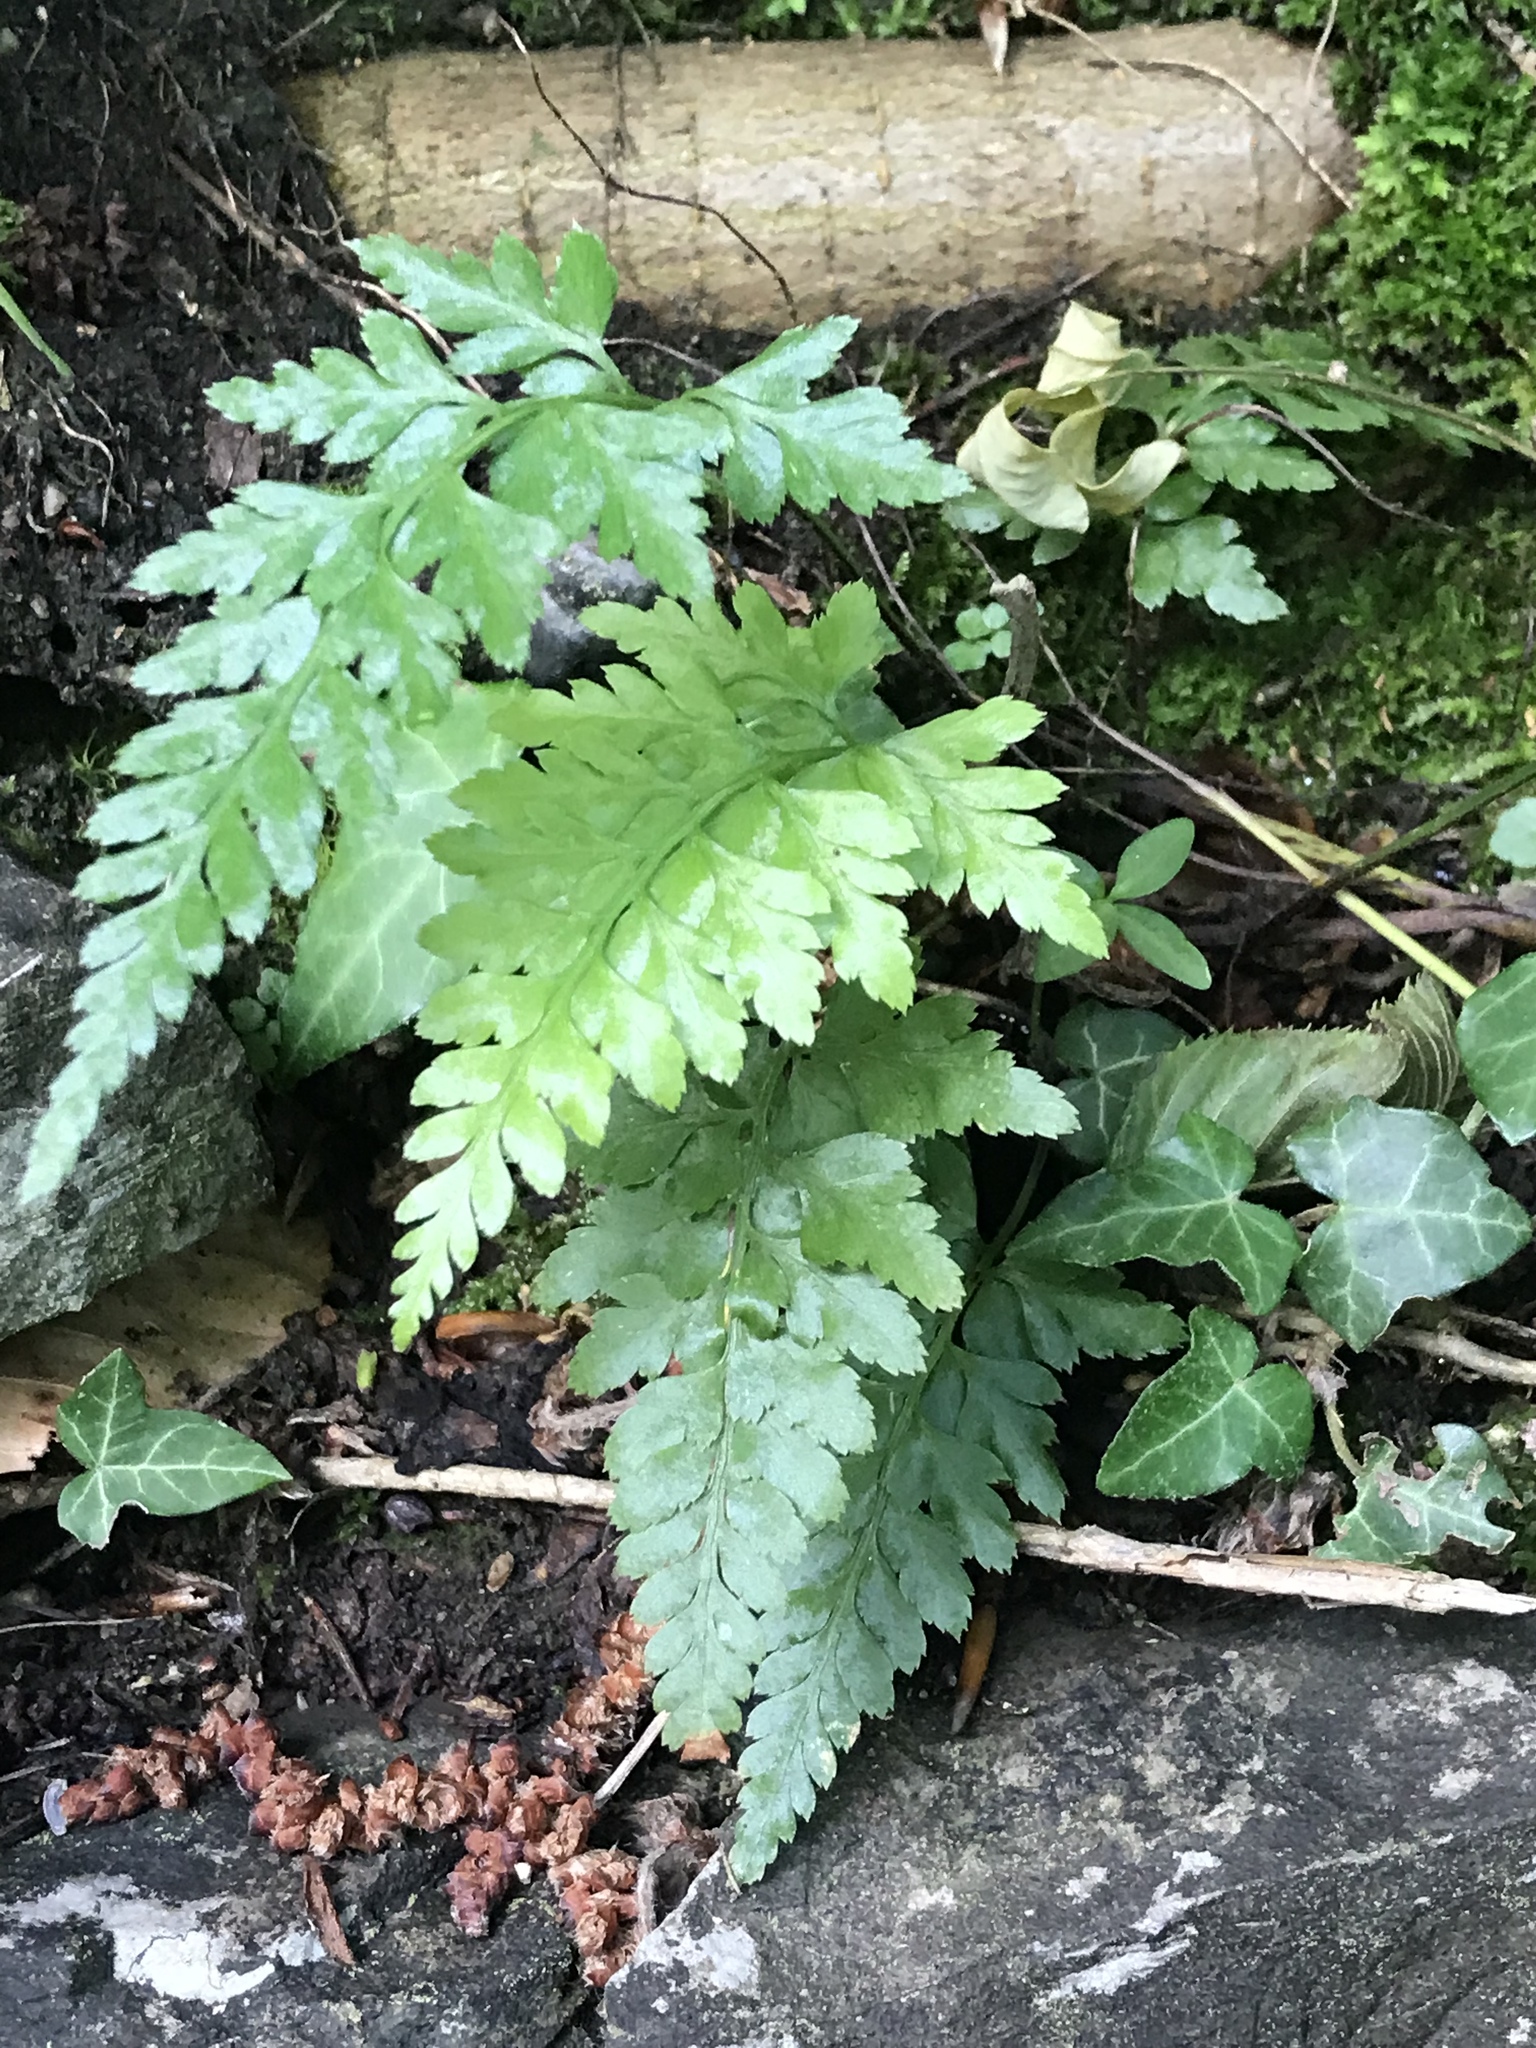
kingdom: Plantae
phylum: Tracheophyta
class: Polypodiopsida
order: Polypodiales
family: Aspleniaceae
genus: Asplenium
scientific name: Asplenium adiantum-nigrum
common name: Black spleenwort
